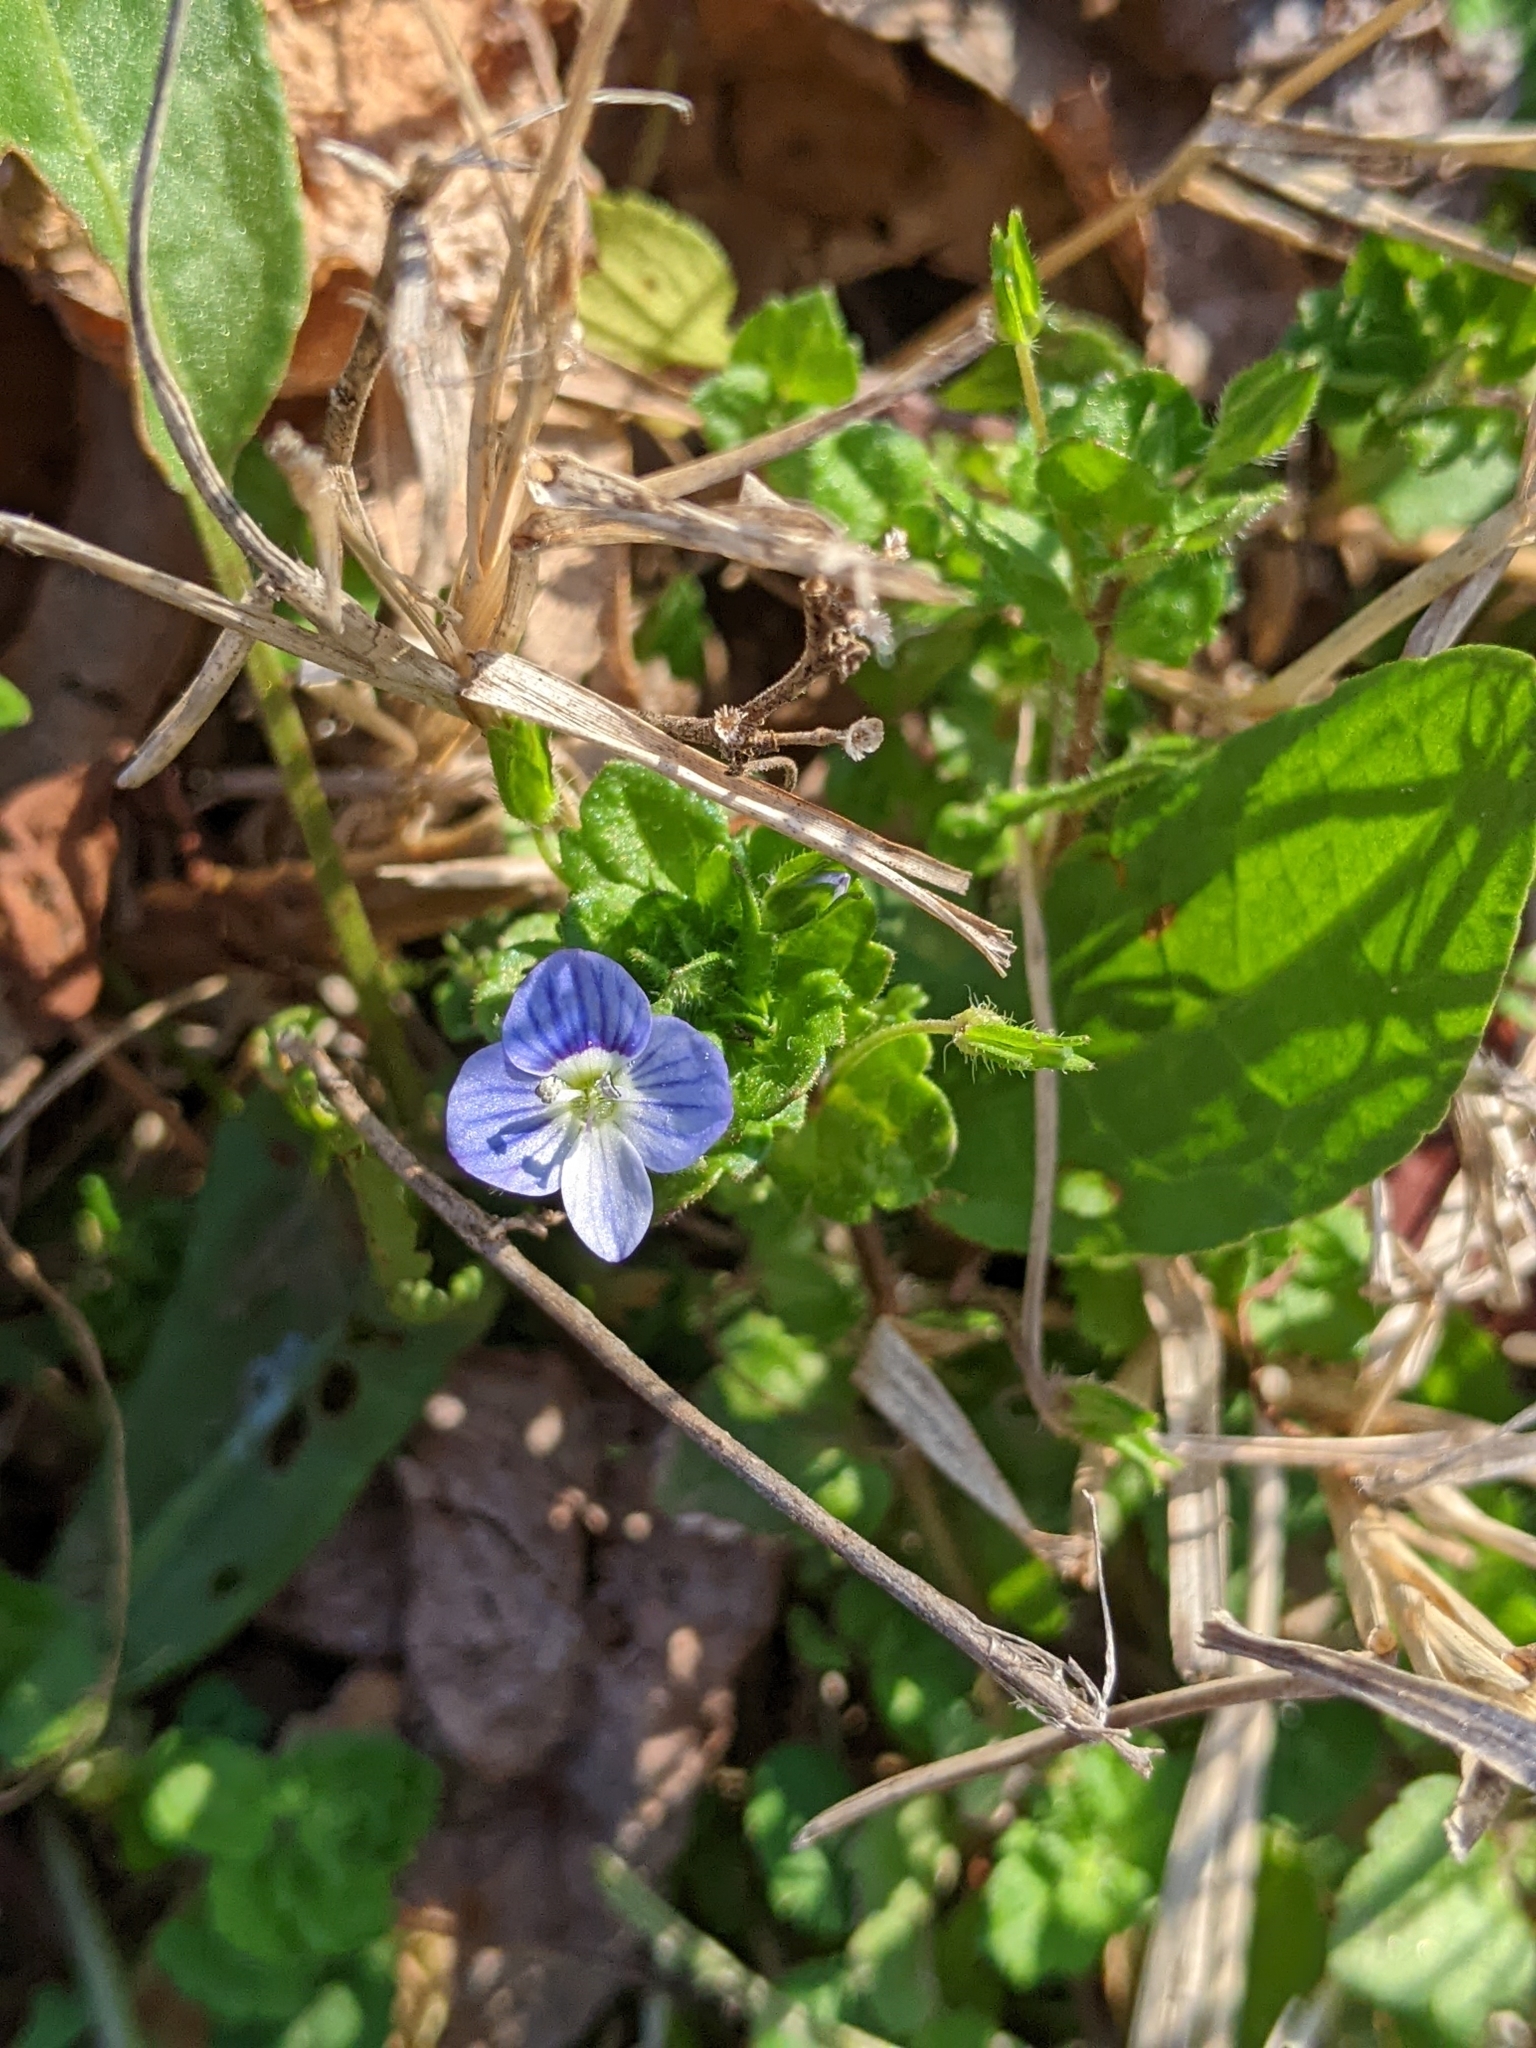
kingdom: Plantae
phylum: Tracheophyta
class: Magnoliopsida
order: Lamiales
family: Plantaginaceae
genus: Veronica
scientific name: Veronica persica
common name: Common field-speedwell
